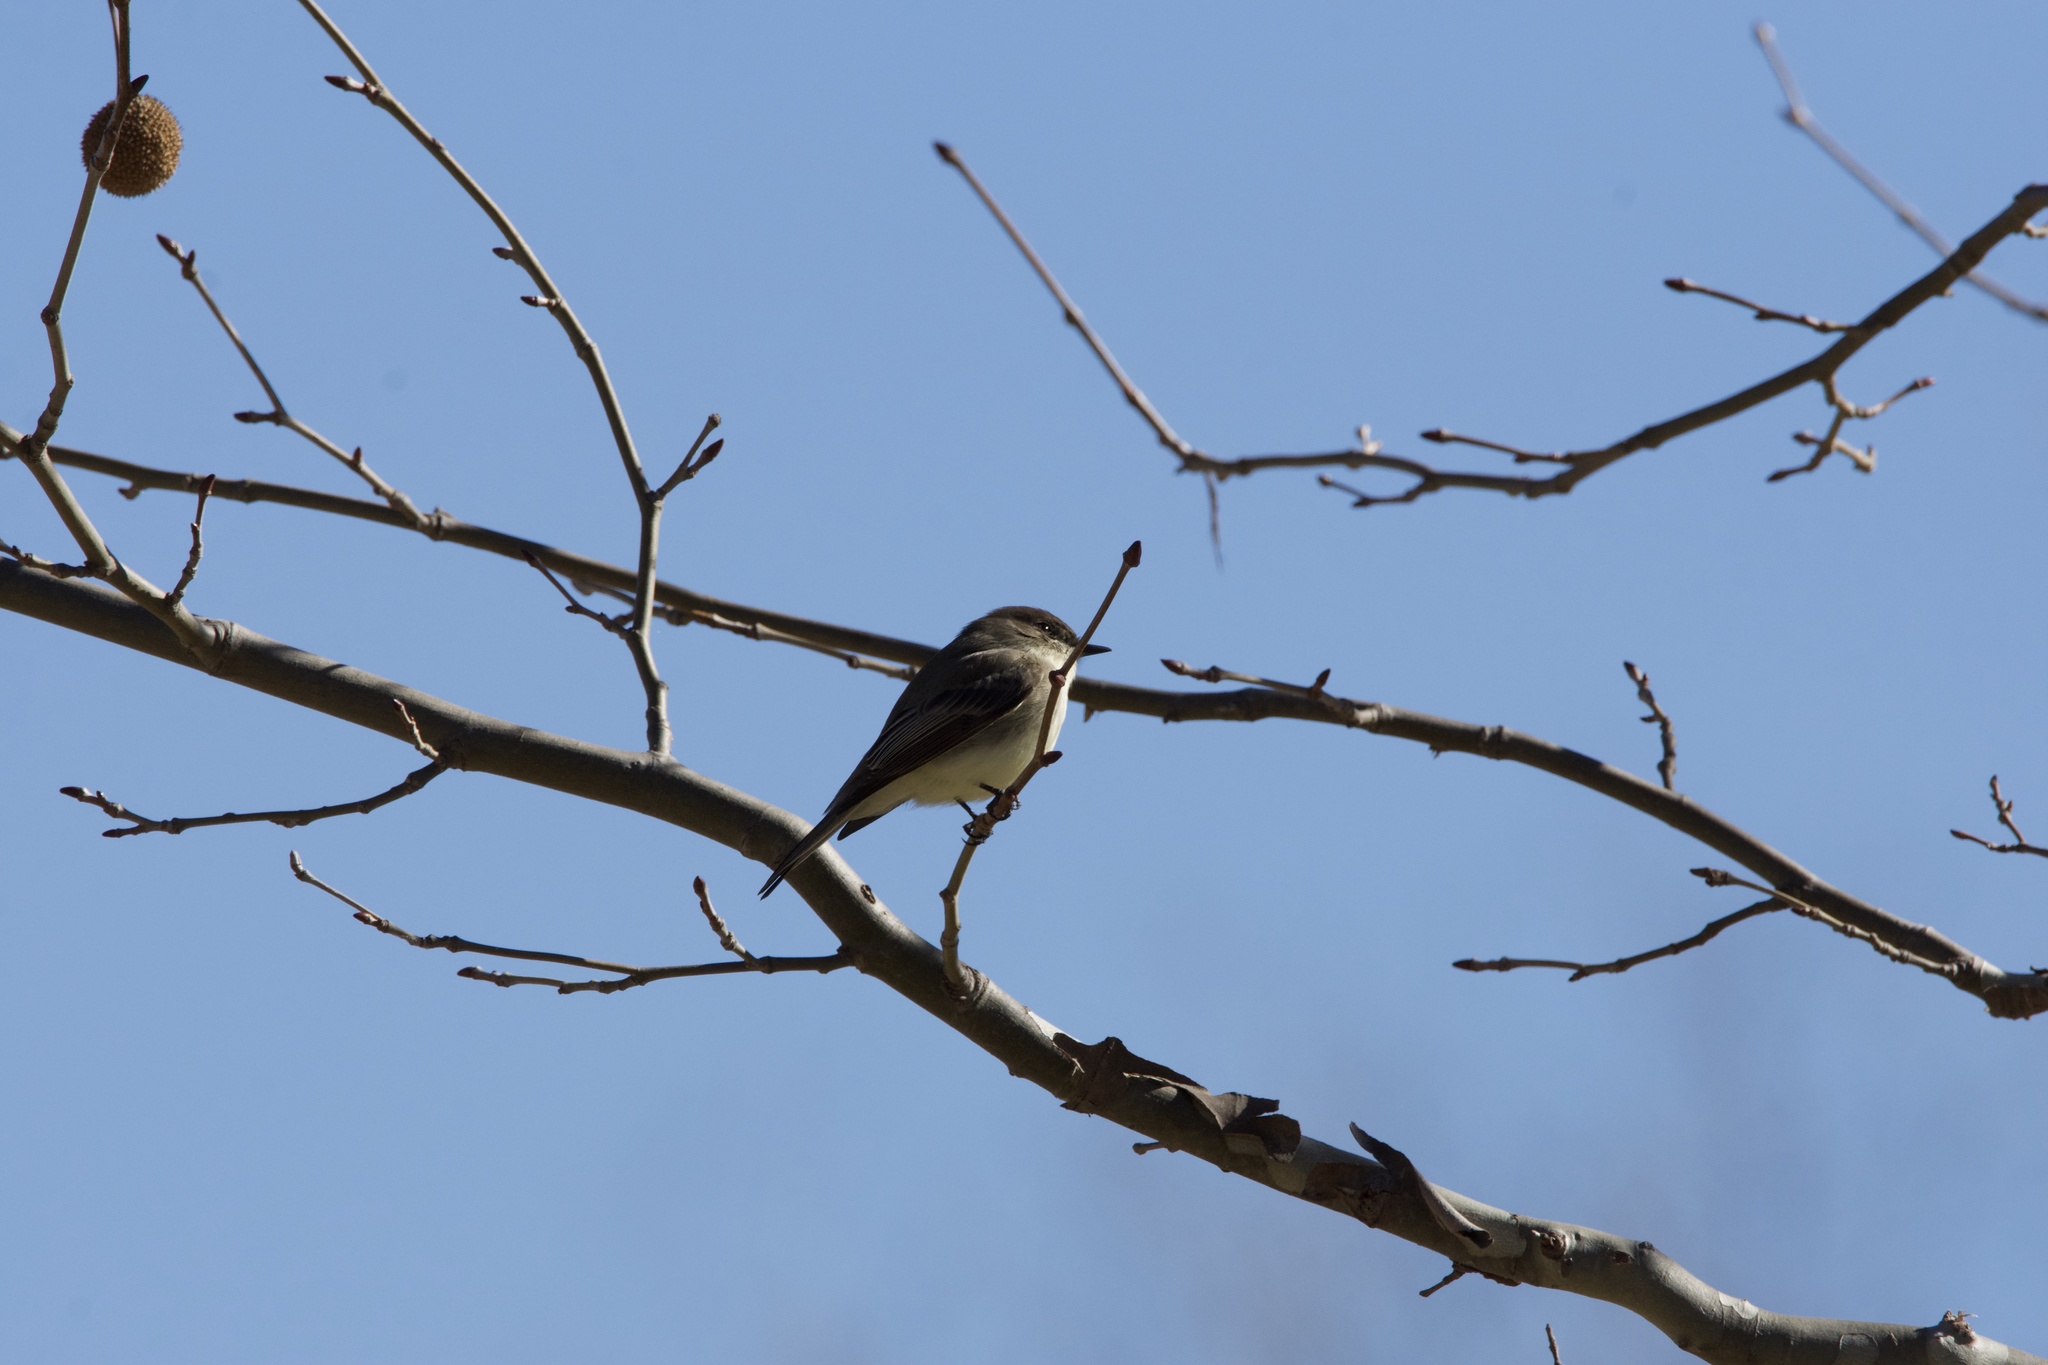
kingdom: Animalia
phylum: Chordata
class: Aves
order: Passeriformes
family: Tyrannidae
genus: Sayornis
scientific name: Sayornis phoebe
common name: Eastern phoebe
